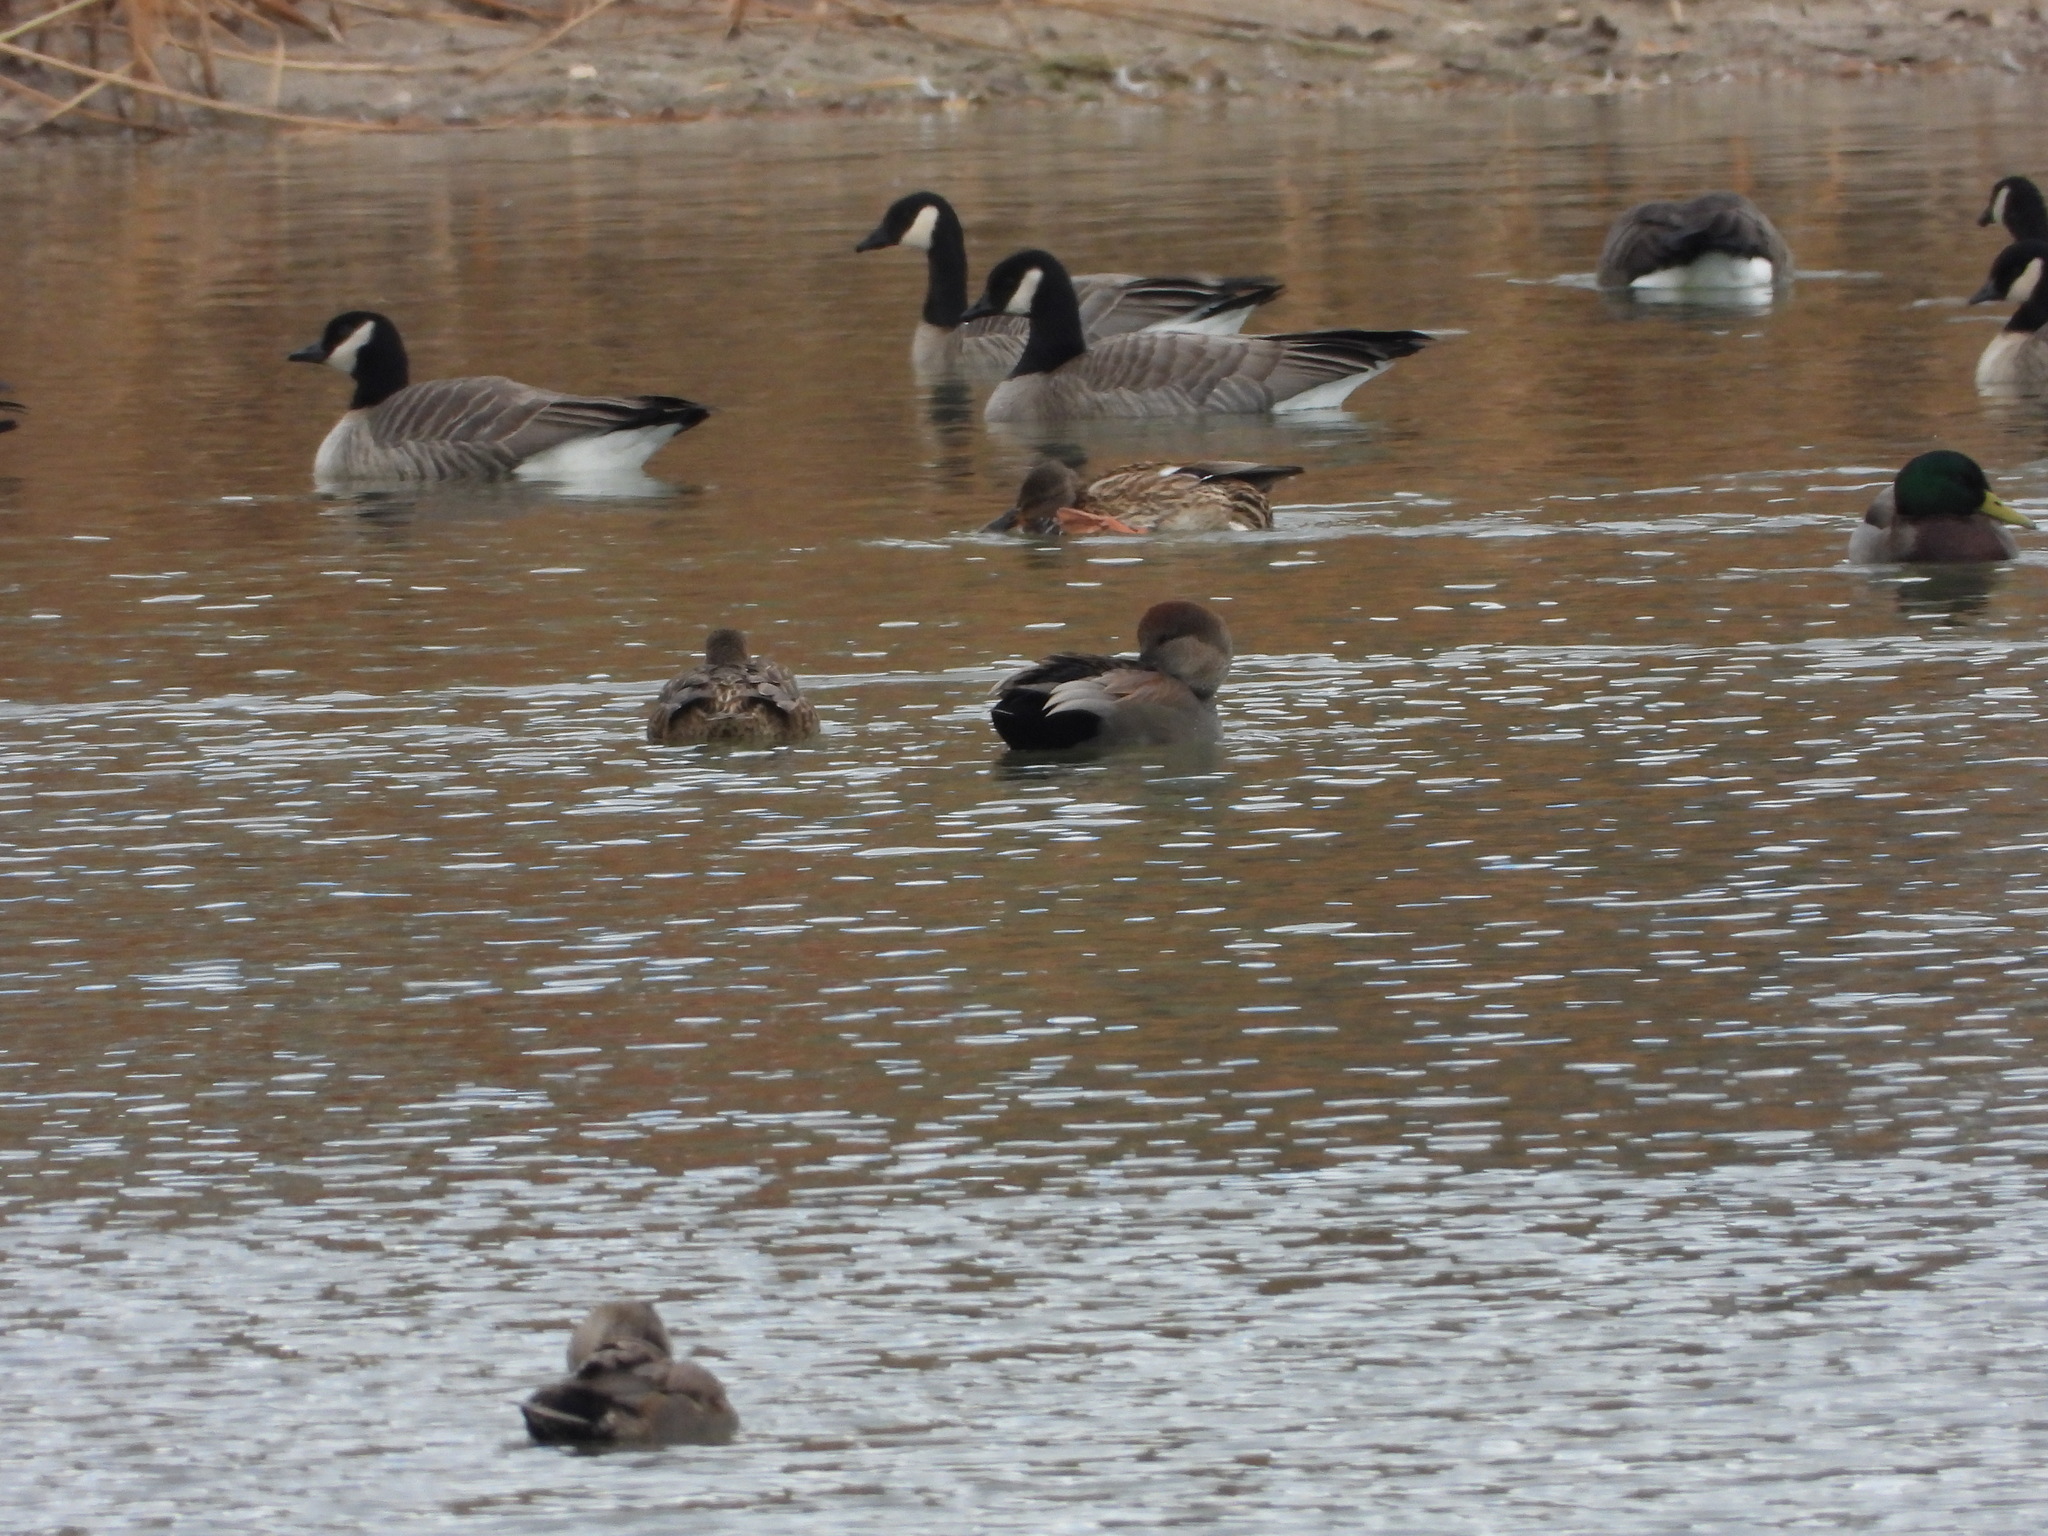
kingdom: Animalia
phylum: Chordata
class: Aves
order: Anseriformes
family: Anatidae
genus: Mareca
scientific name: Mareca strepera
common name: Gadwall
